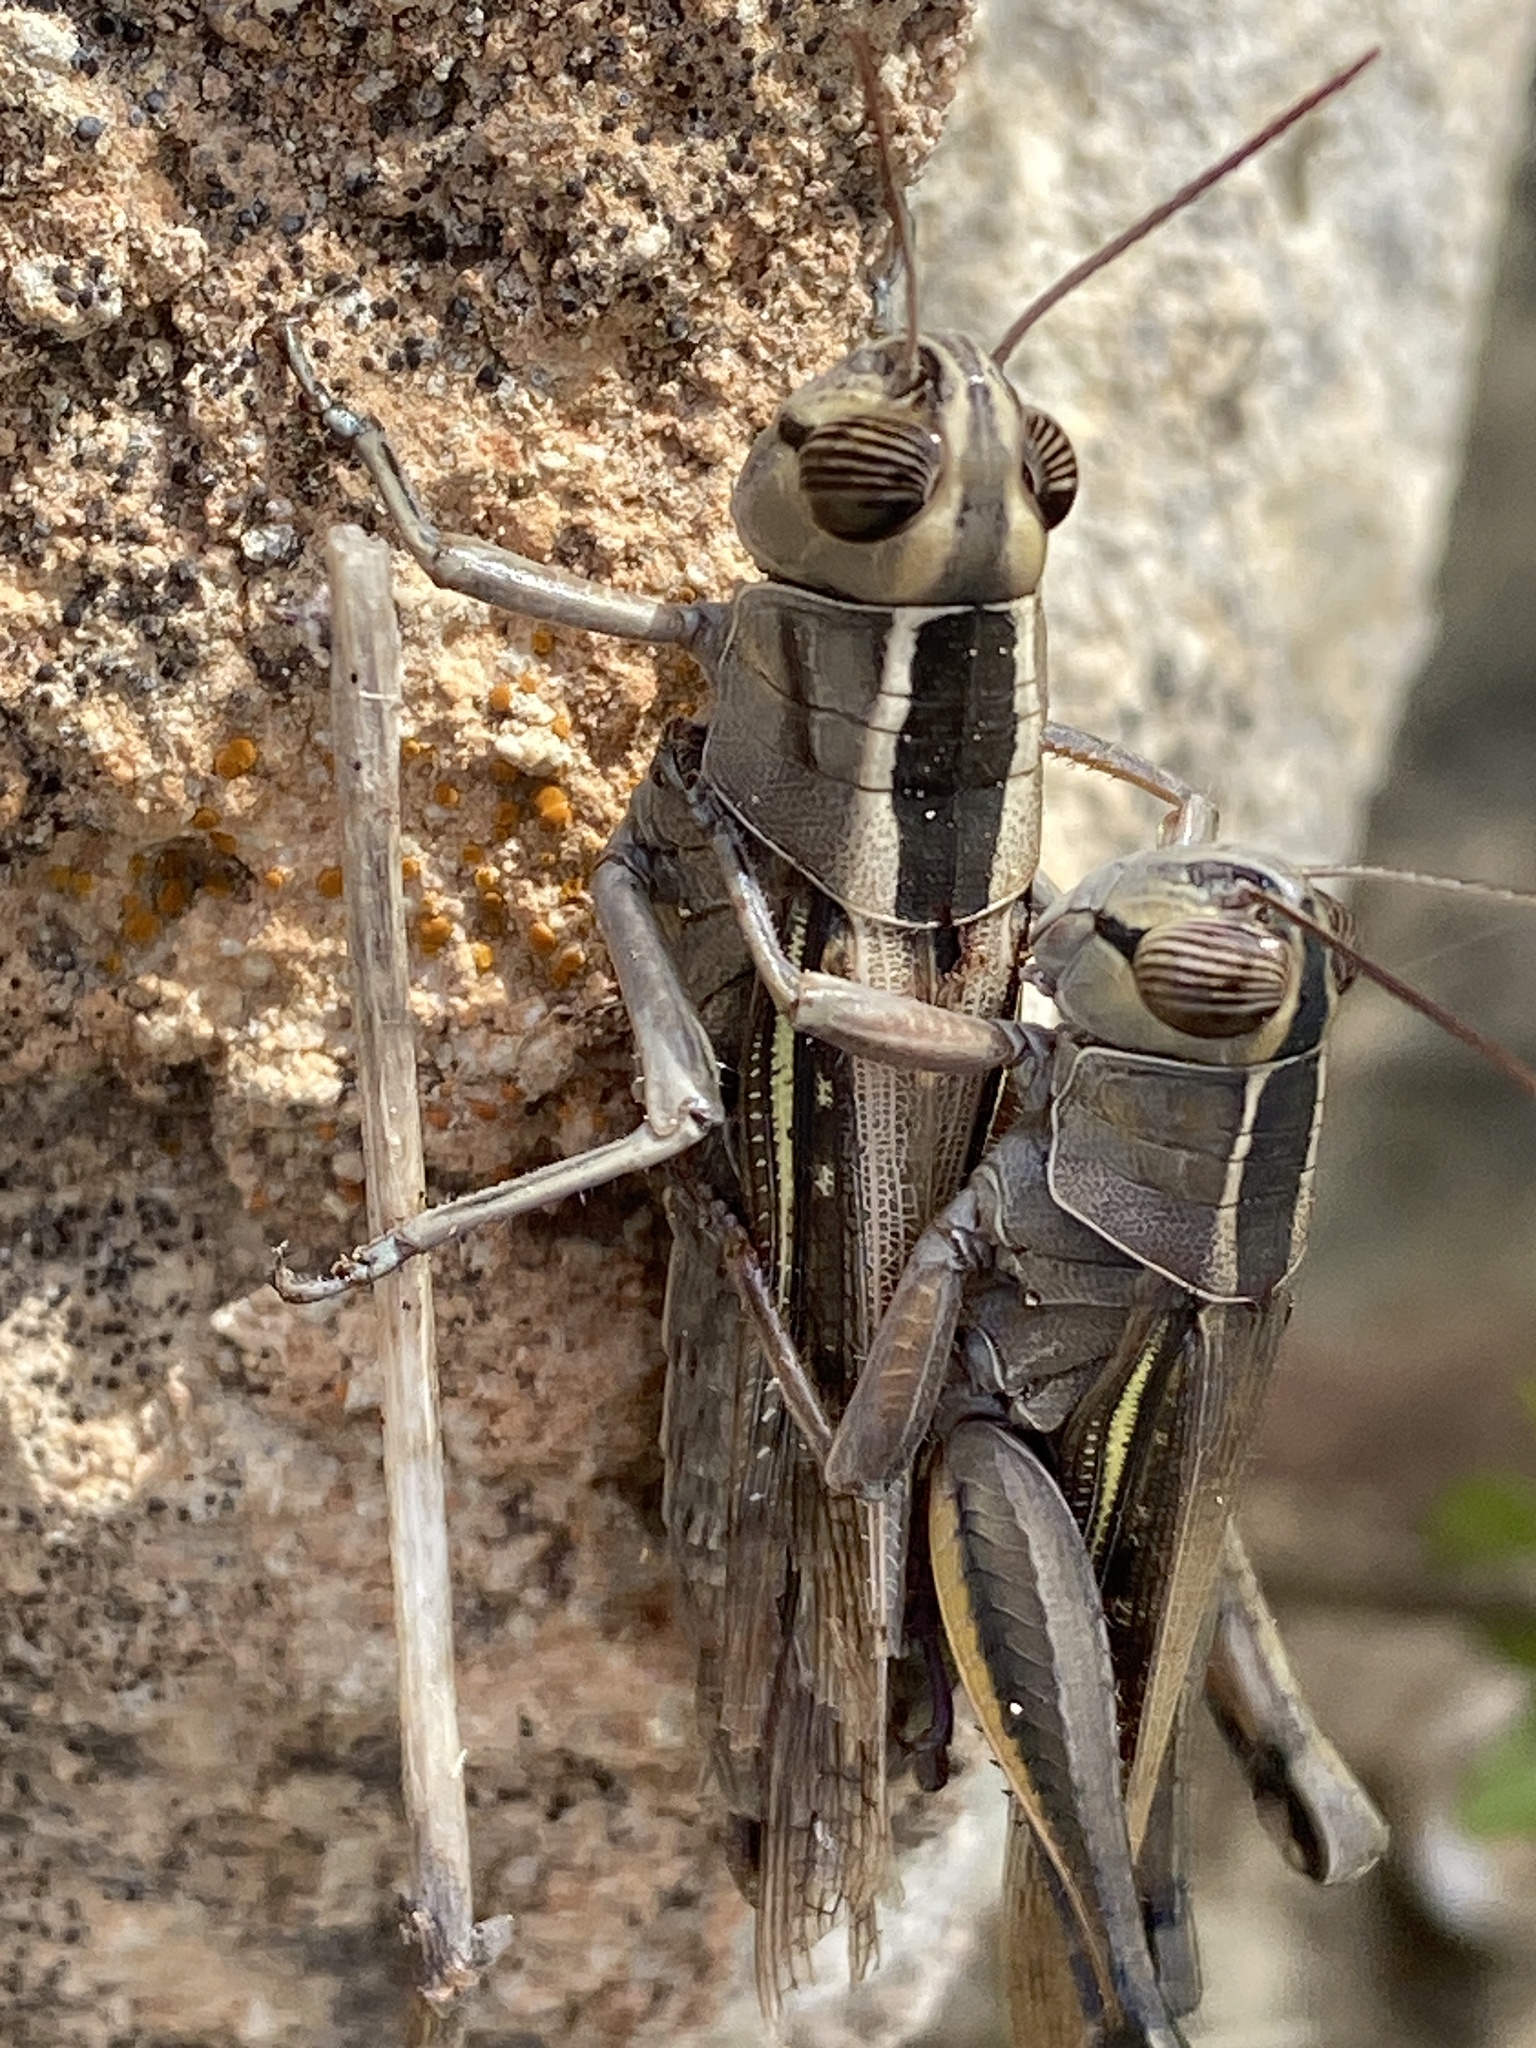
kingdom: Animalia
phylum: Arthropoda
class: Insecta
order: Orthoptera
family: Acrididae
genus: Eyprepocnemis
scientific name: Eyprepocnemis plorans
